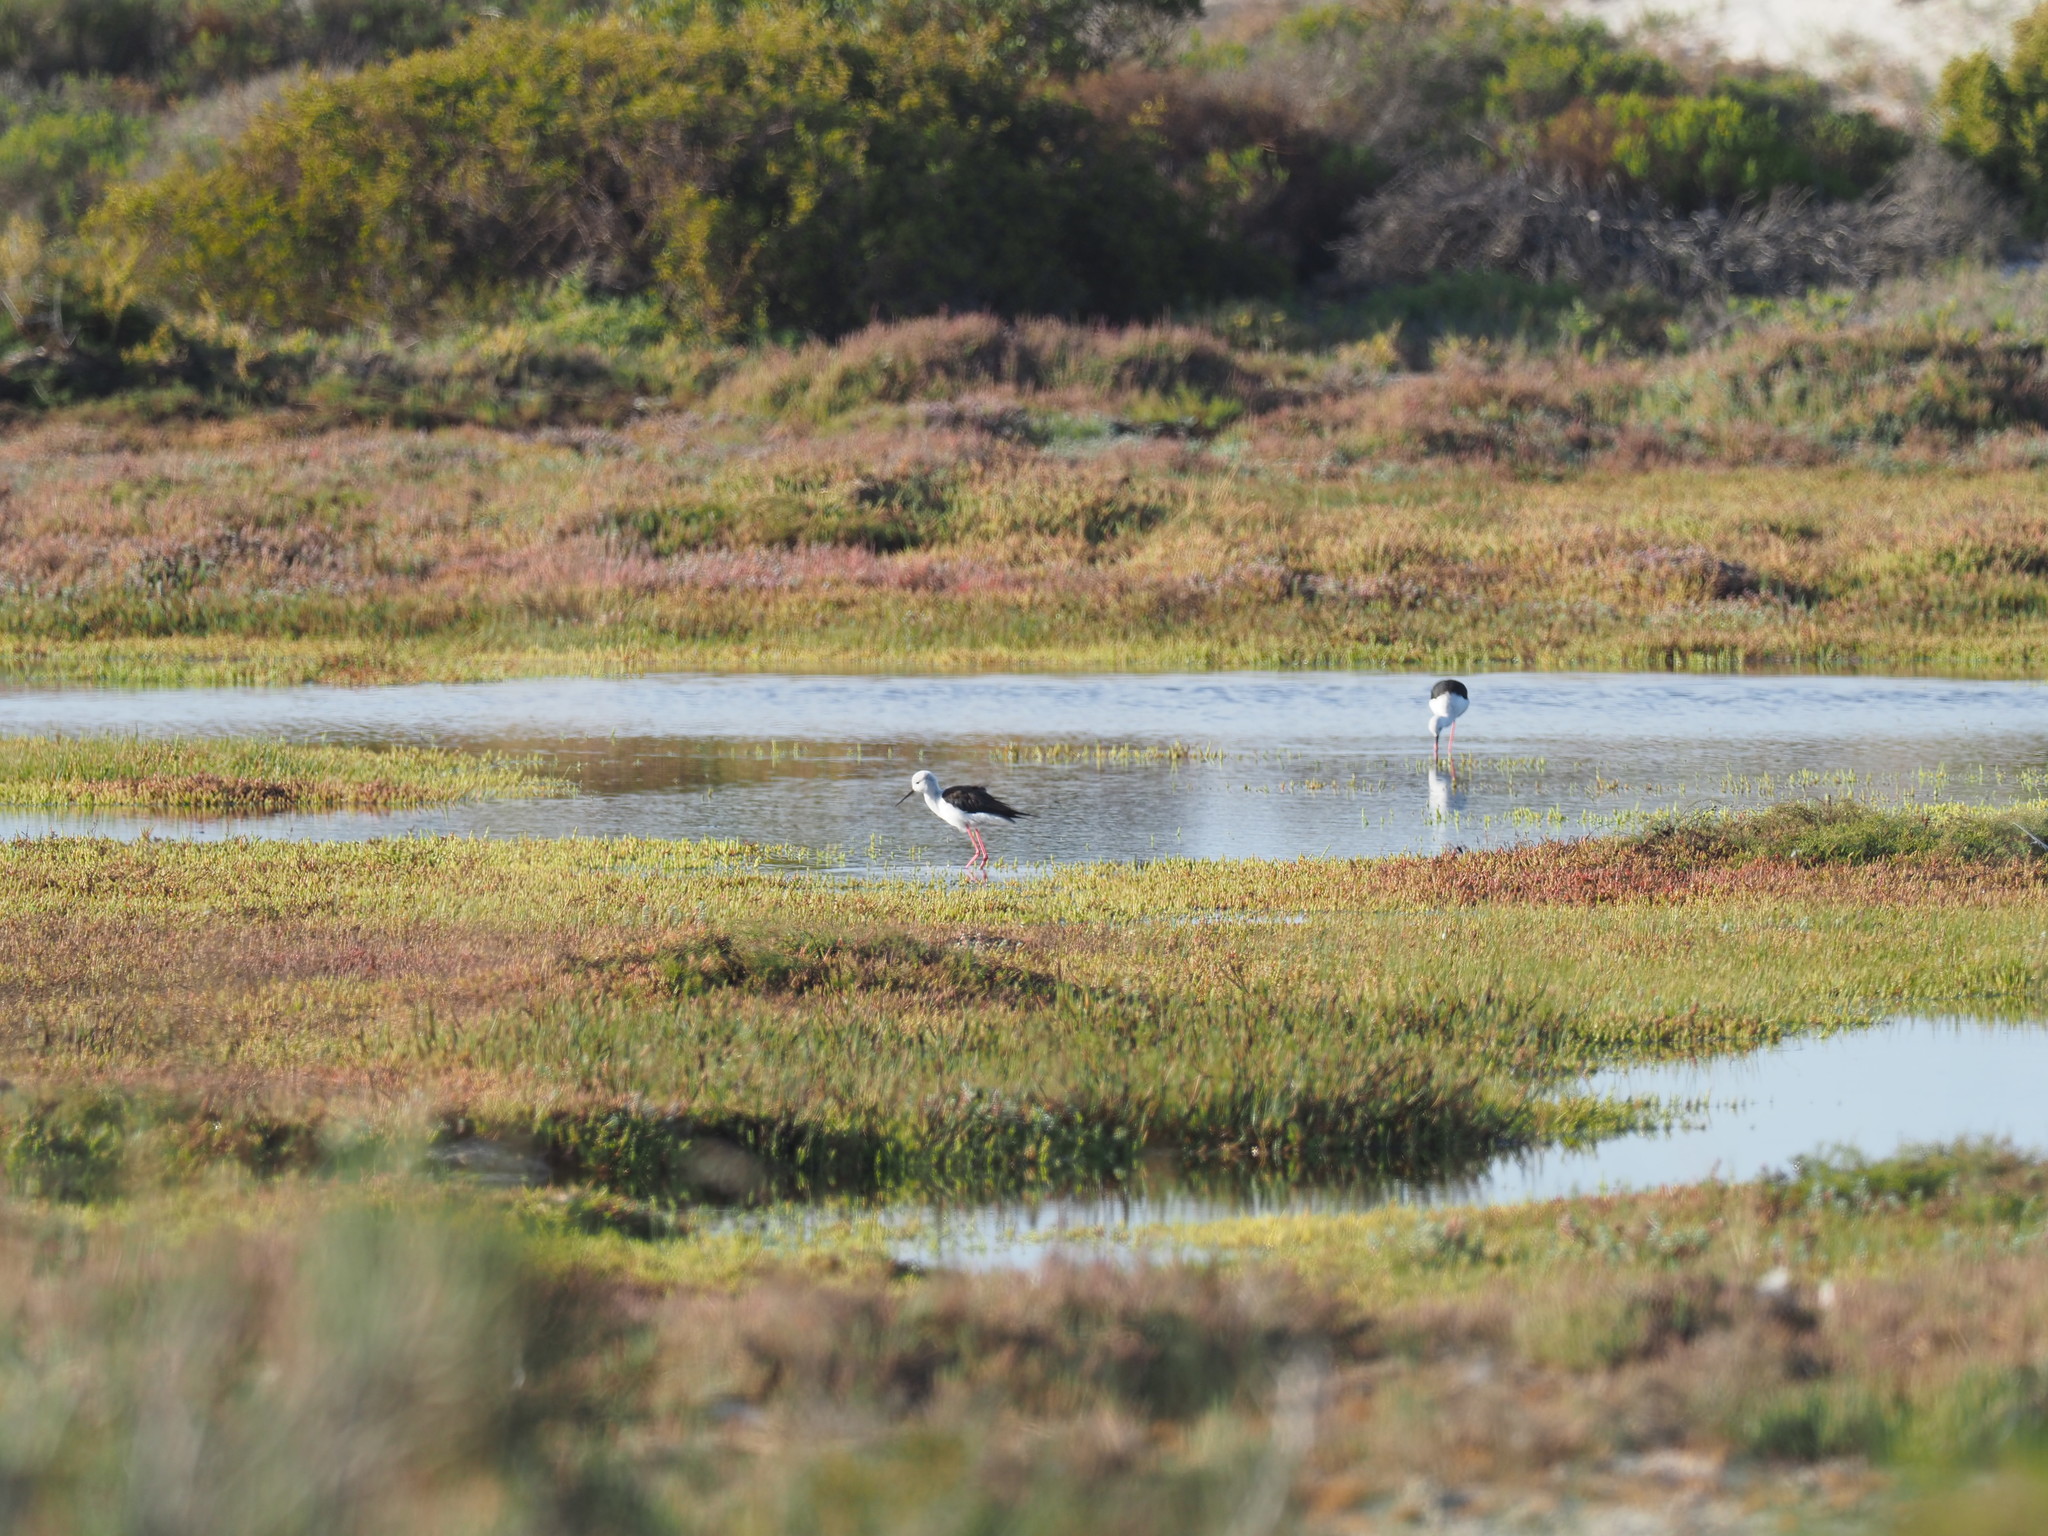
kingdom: Animalia
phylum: Chordata
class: Aves
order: Charadriiformes
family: Recurvirostridae
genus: Himantopus
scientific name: Himantopus himantopus
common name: Black-winged stilt
